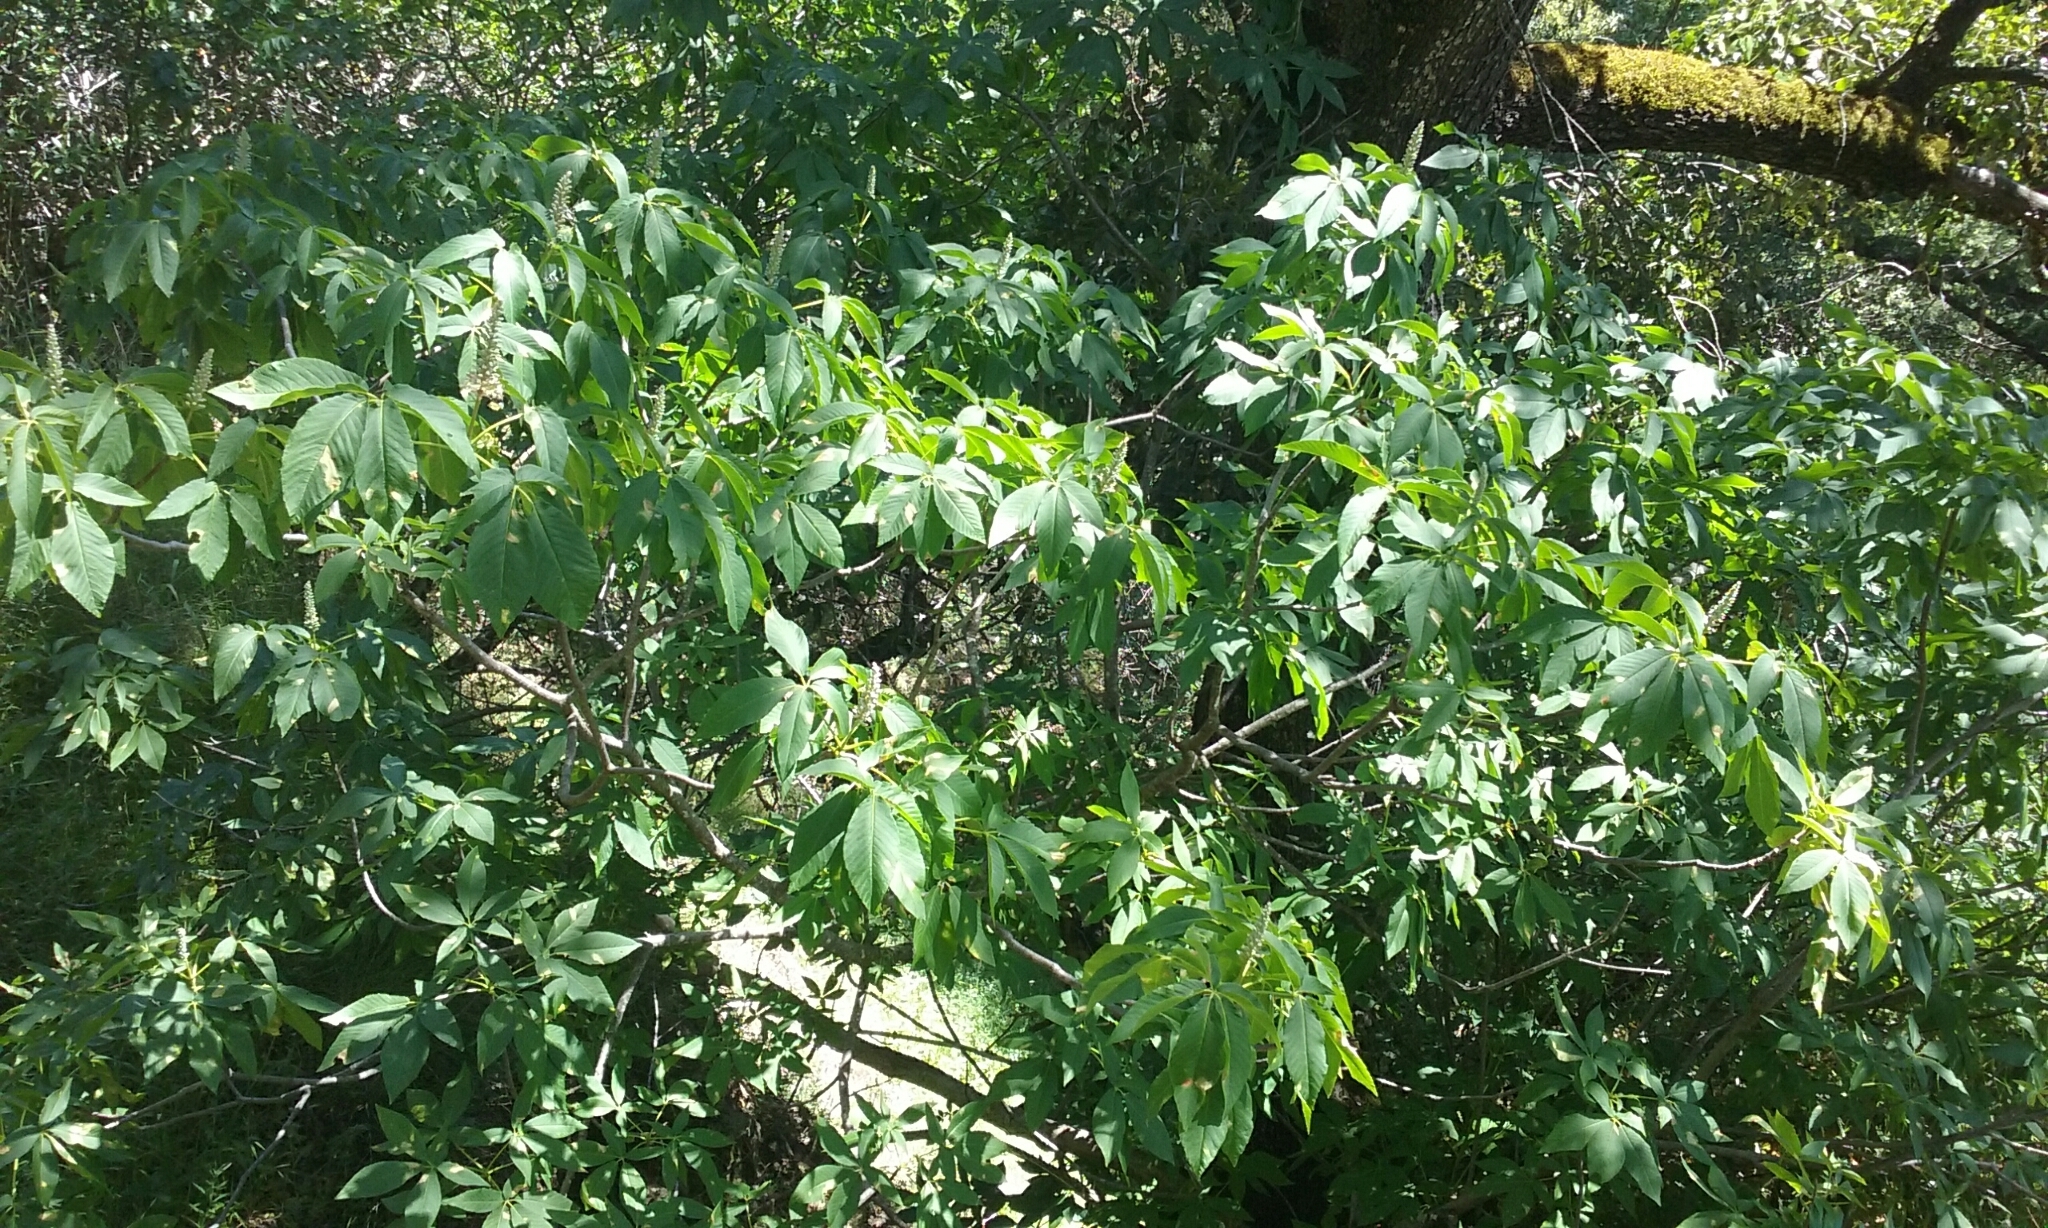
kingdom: Plantae
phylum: Tracheophyta
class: Magnoliopsida
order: Sapindales
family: Sapindaceae
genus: Aesculus
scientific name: Aesculus californica
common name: California buckeye
